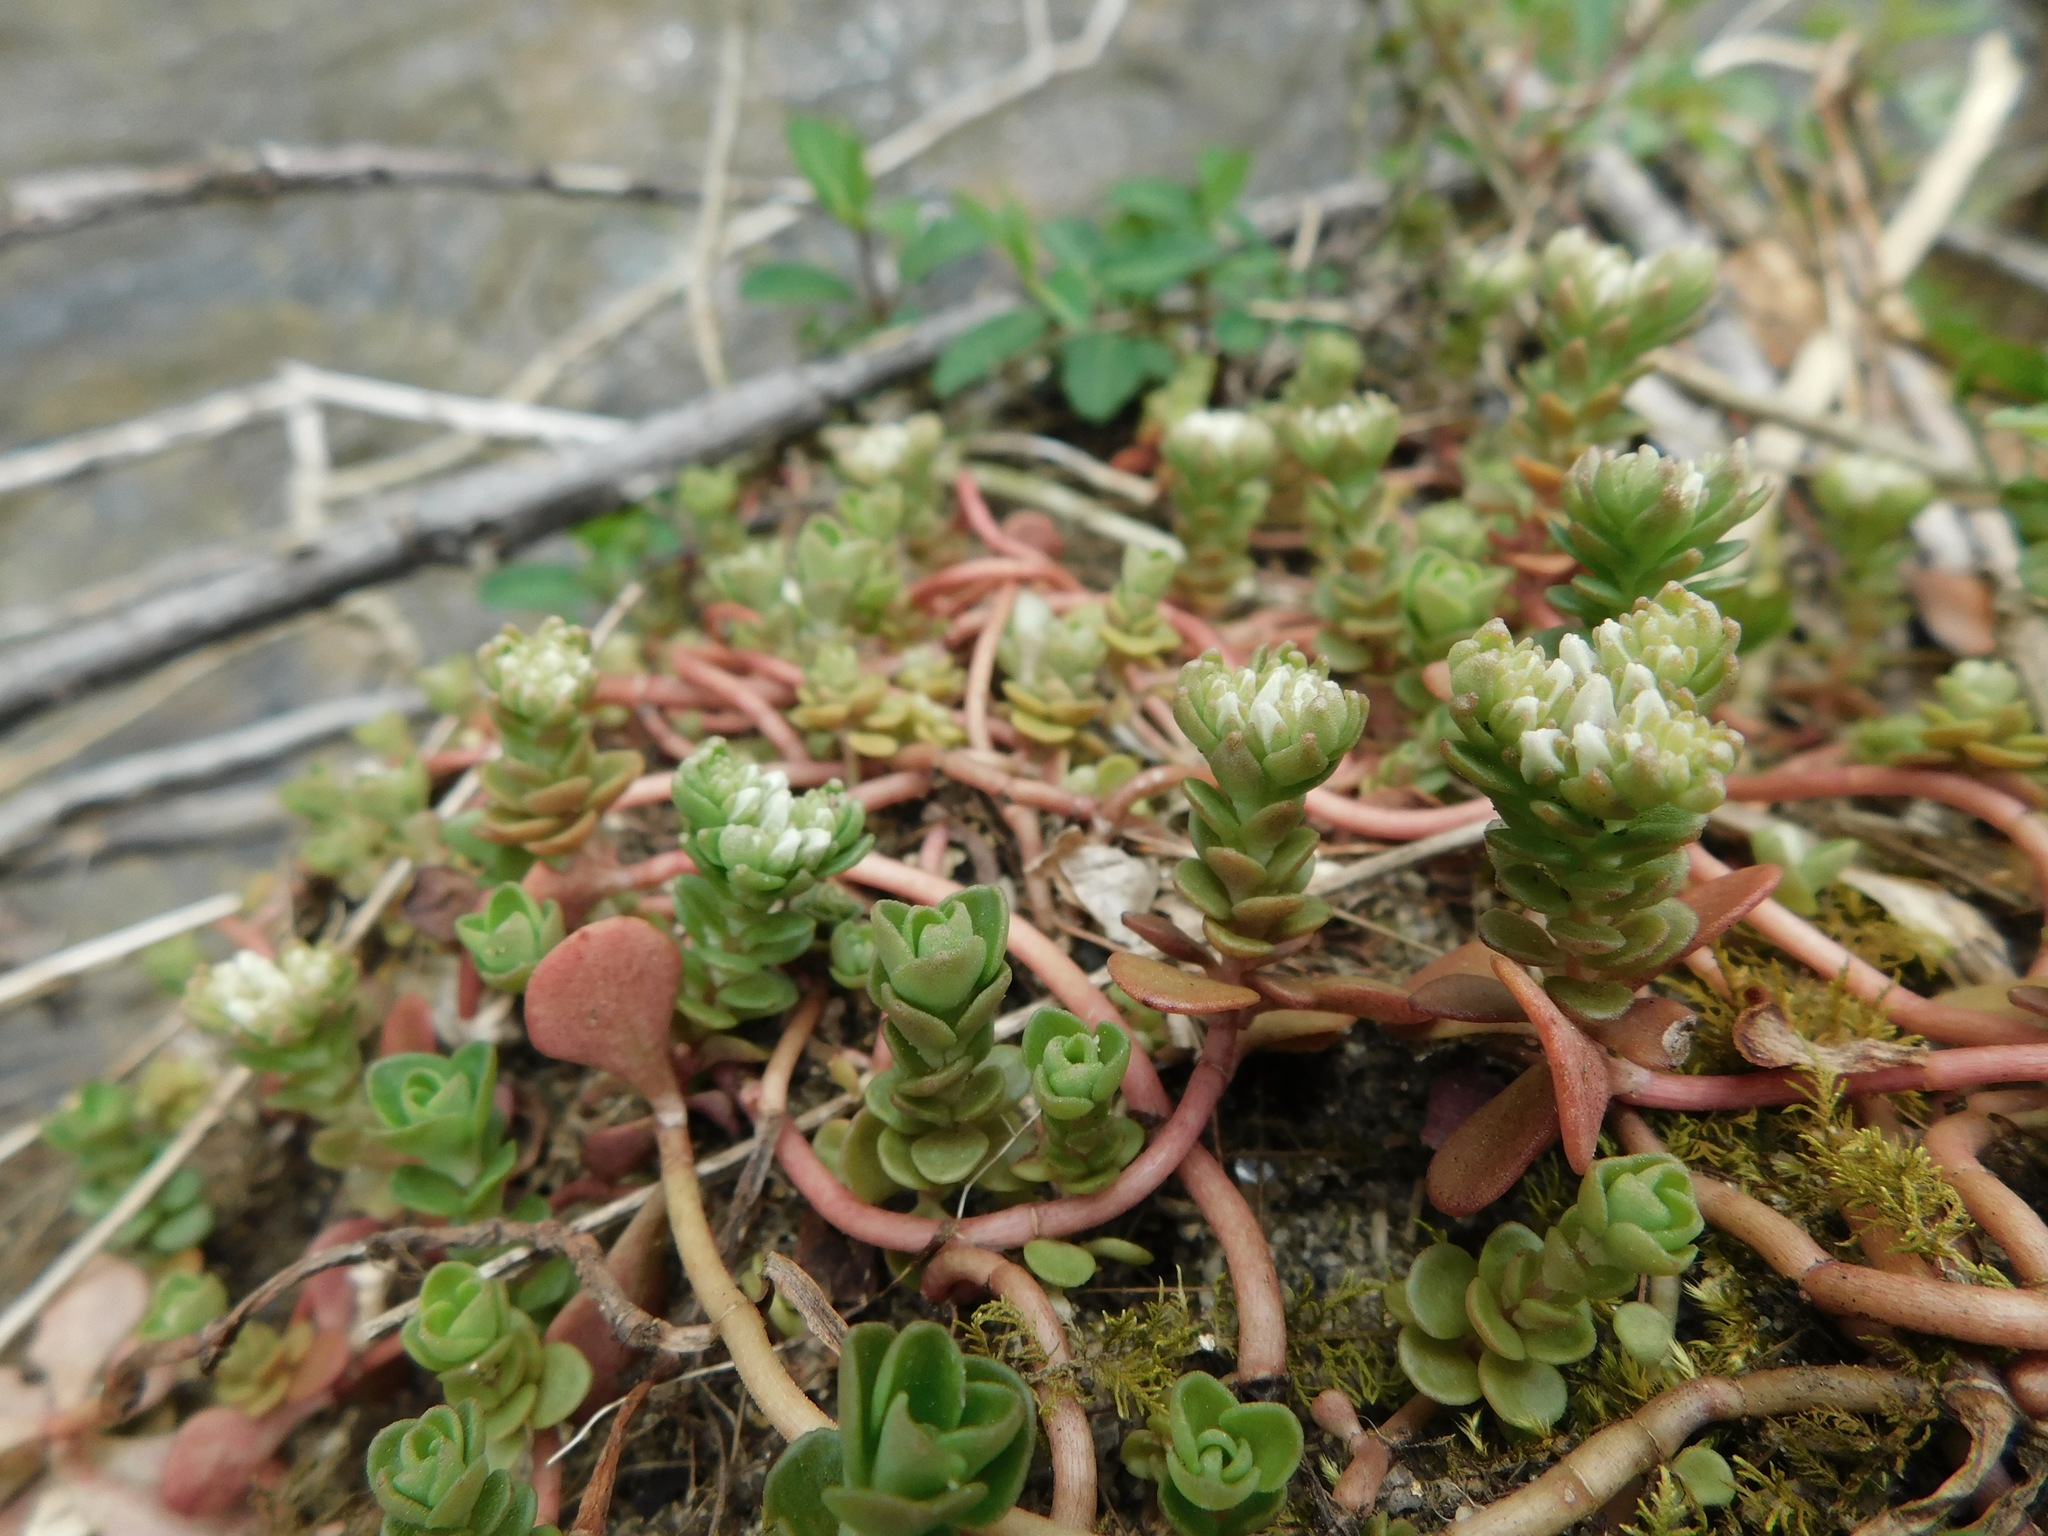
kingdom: Plantae
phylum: Tracheophyta
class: Magnoliopsida
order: Saxifragales
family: Crassulaceae
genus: Sedum
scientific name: Sedum ternatum
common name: Wild stonecrop
